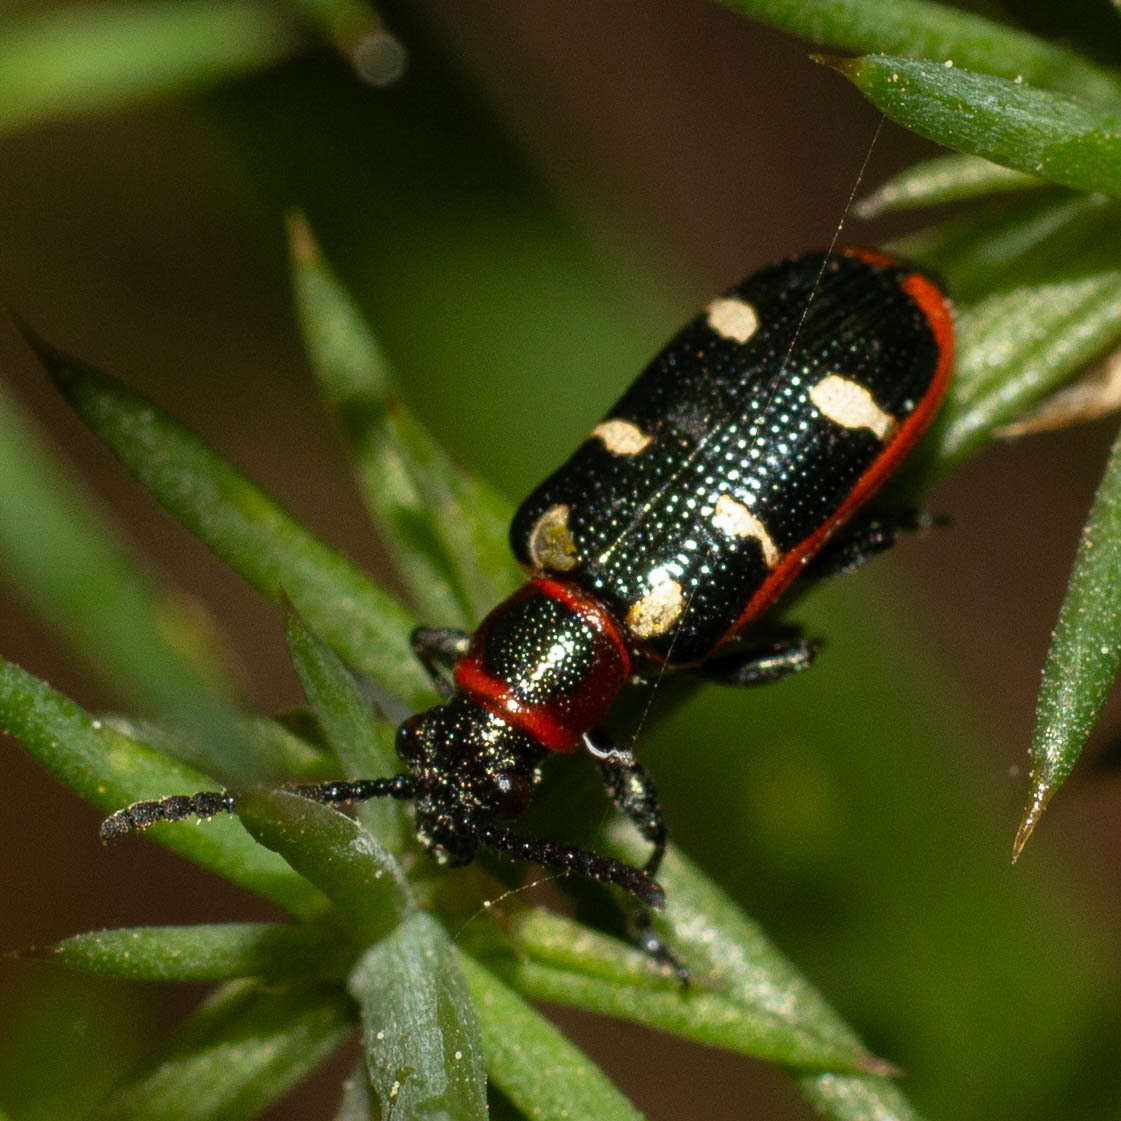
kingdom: Animalia
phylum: Arthropoda
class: Insecta
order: Coleoptera
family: Chrysomelidae
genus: Crioceris
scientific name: Crioceris asparagi
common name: Asparagus beetle
